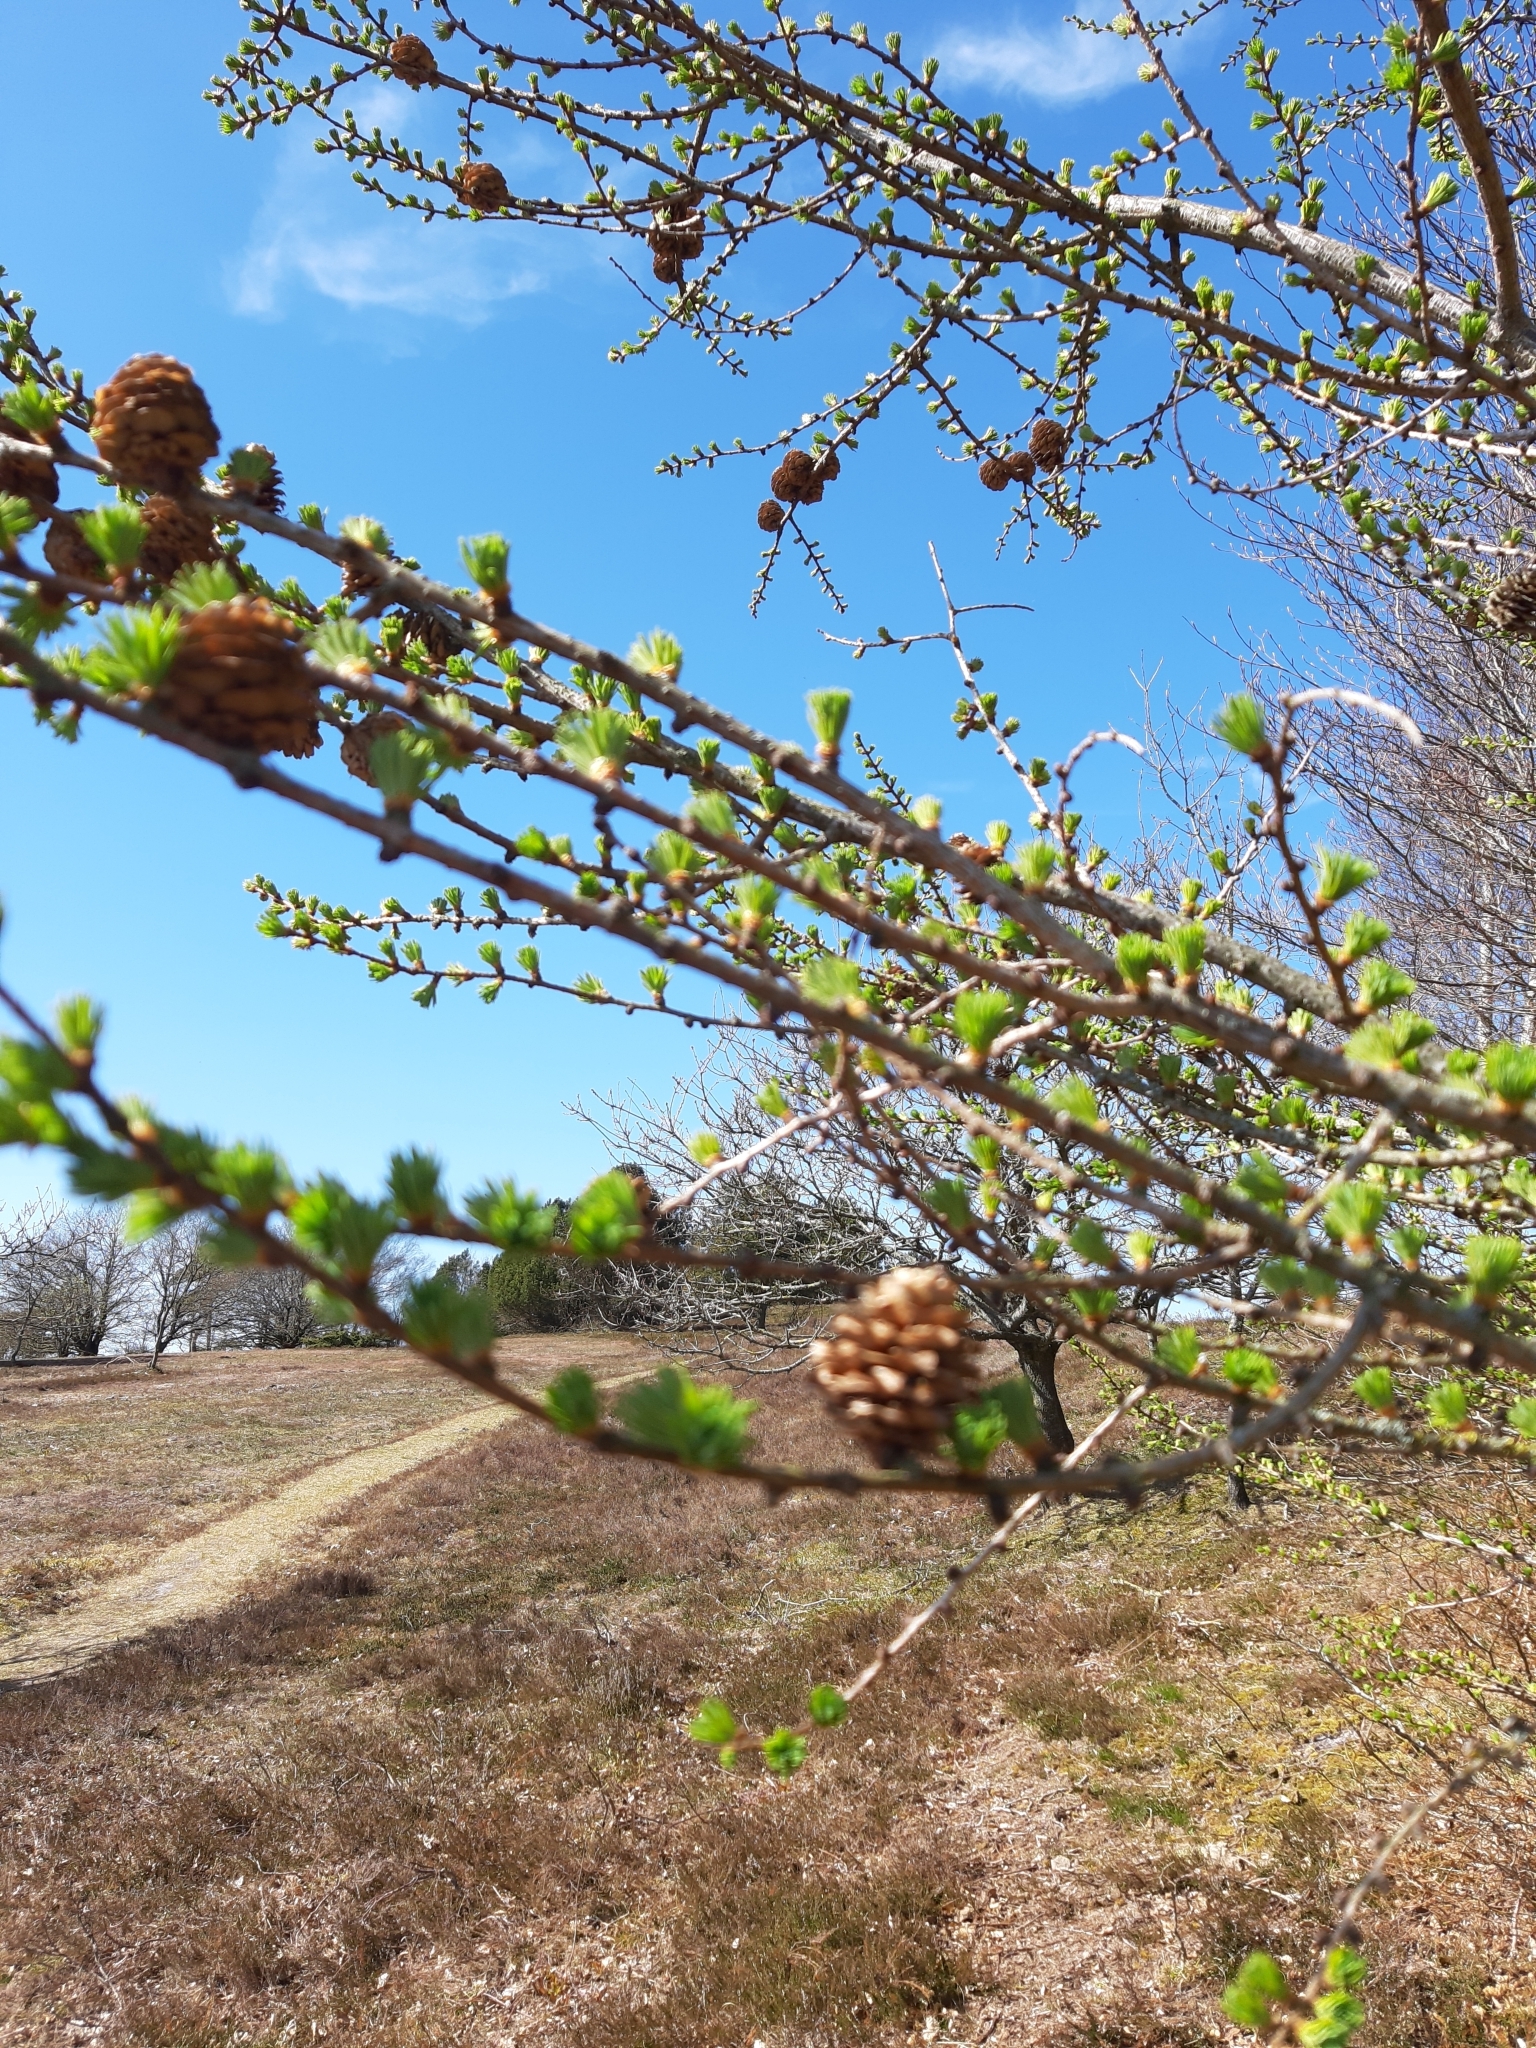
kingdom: Plantae
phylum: Tracheophyta
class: Pinopsida
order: Pinales
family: Pinaceae
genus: Larix
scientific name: Larix decidua
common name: European larch
